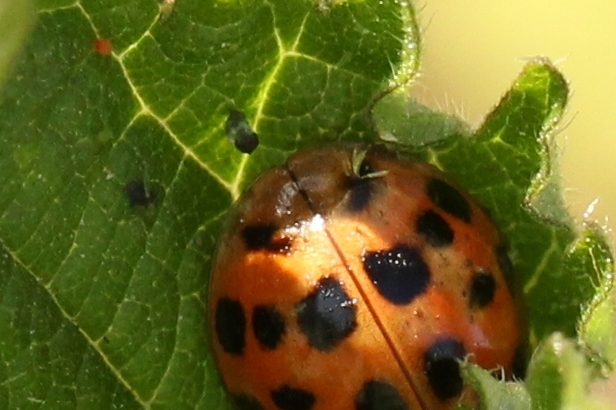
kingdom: Fungi
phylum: Ascomycota
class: Laboulbeniomycetes
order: Laboulbeniales
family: Laboulbeniaceae
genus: Hesperomyces
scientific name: Hesperomyces harmoniae
